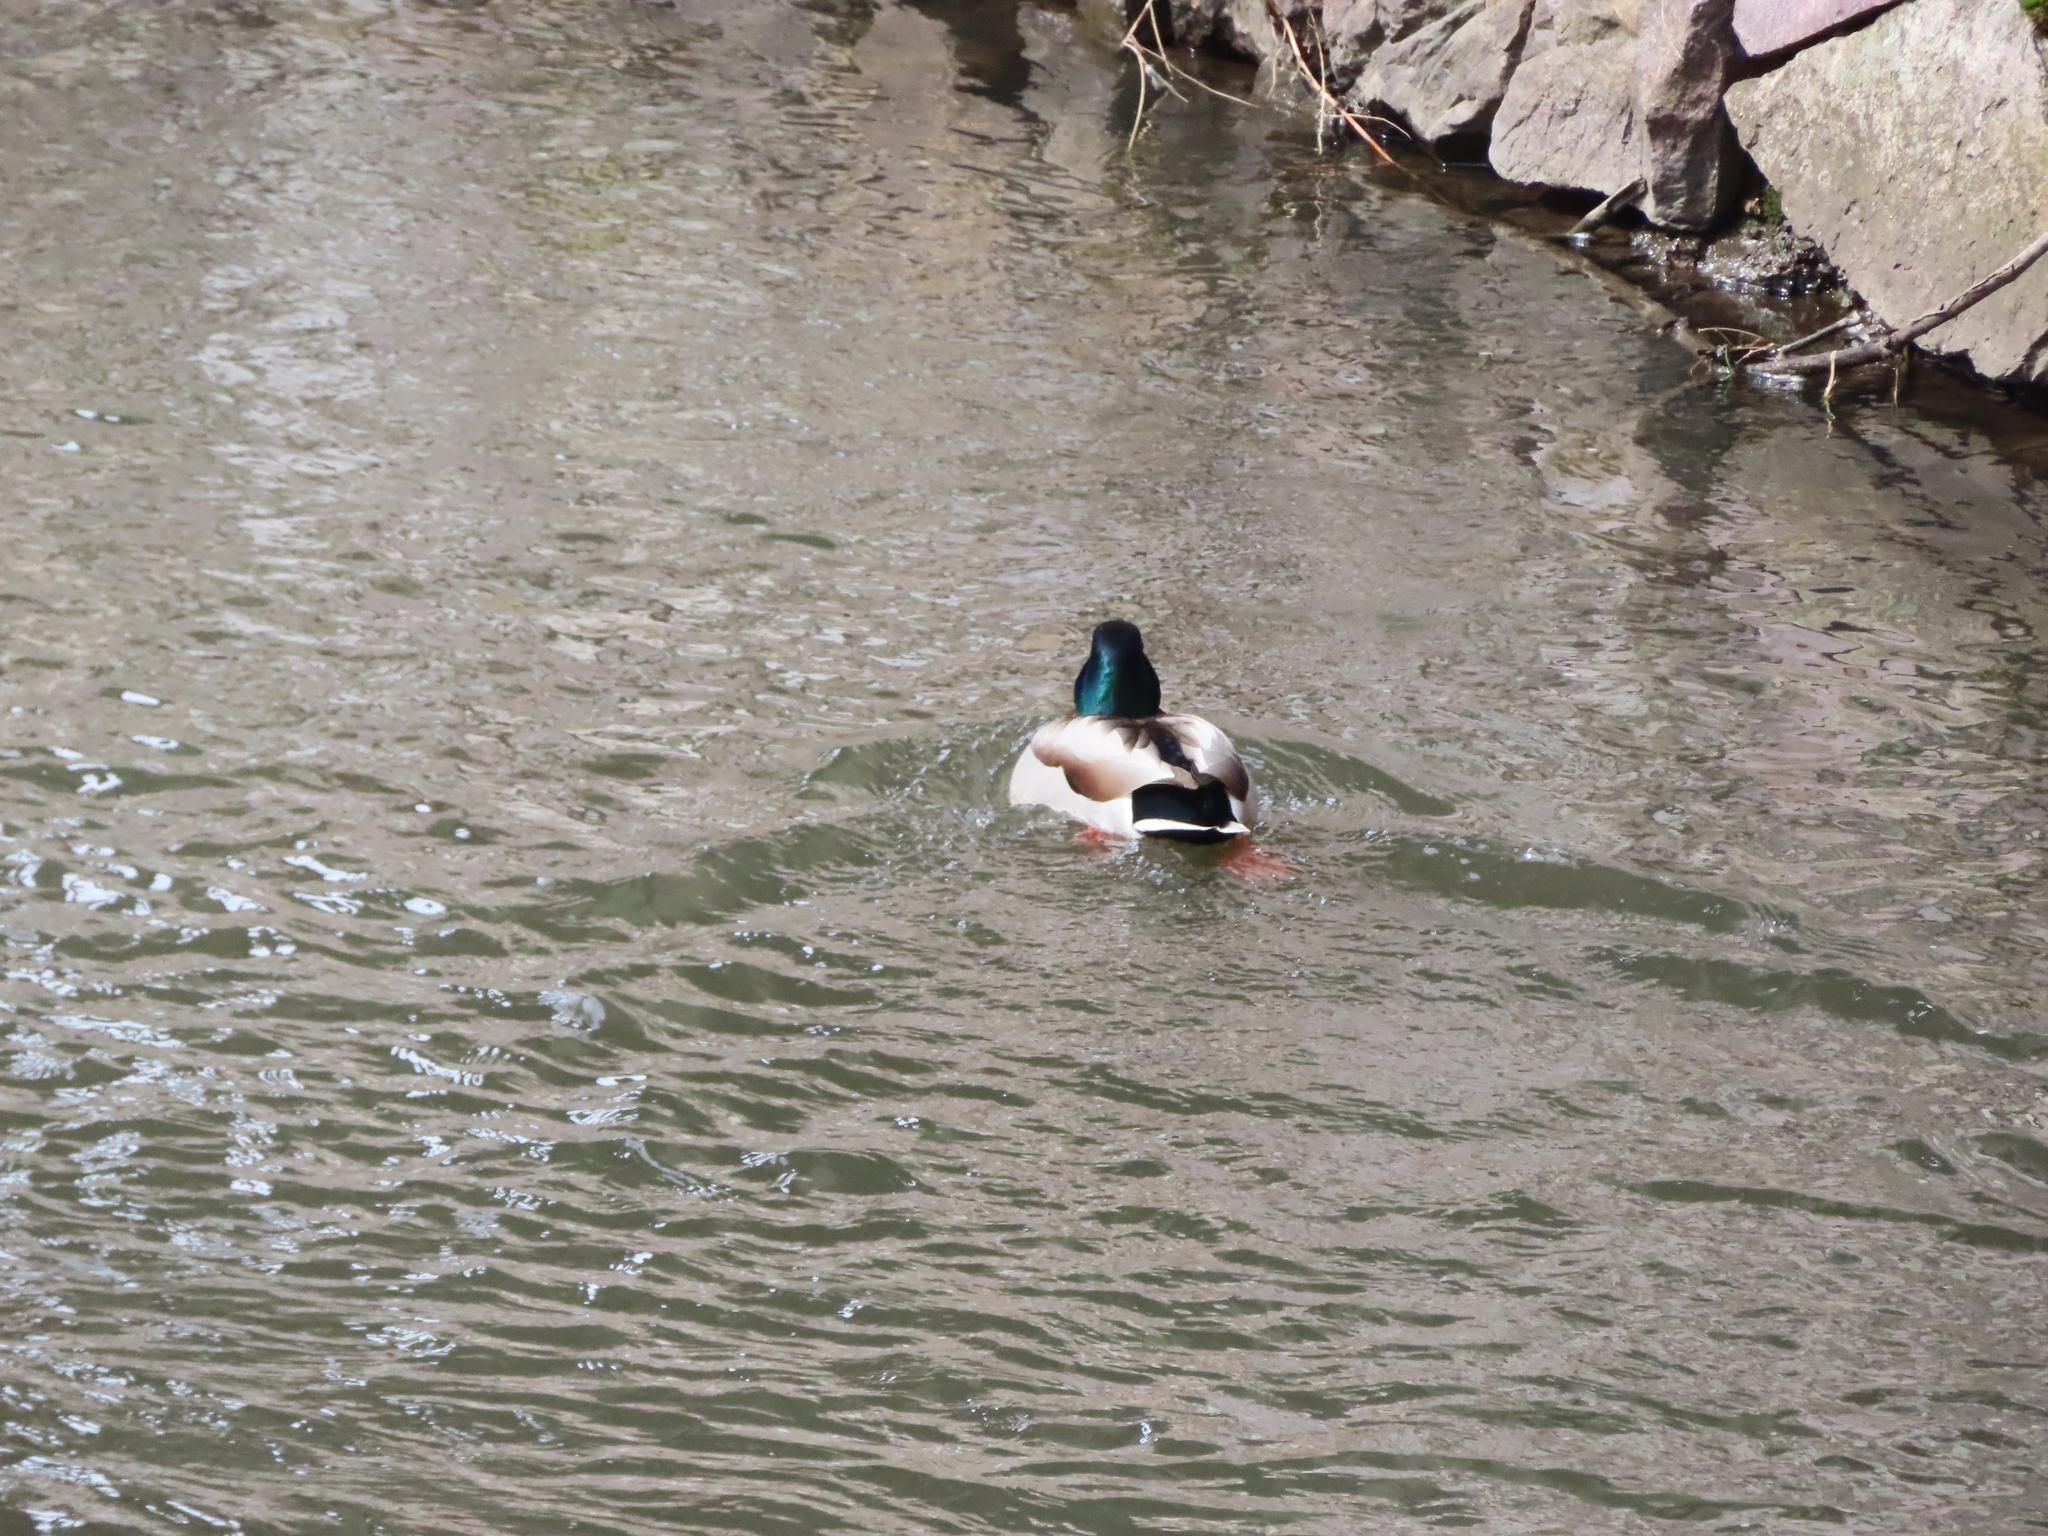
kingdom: Animalia
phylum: Chordata
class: Aves
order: Anseriformes
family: Anatidae
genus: Anas
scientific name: Anas platyrhynchos
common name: Mallard
